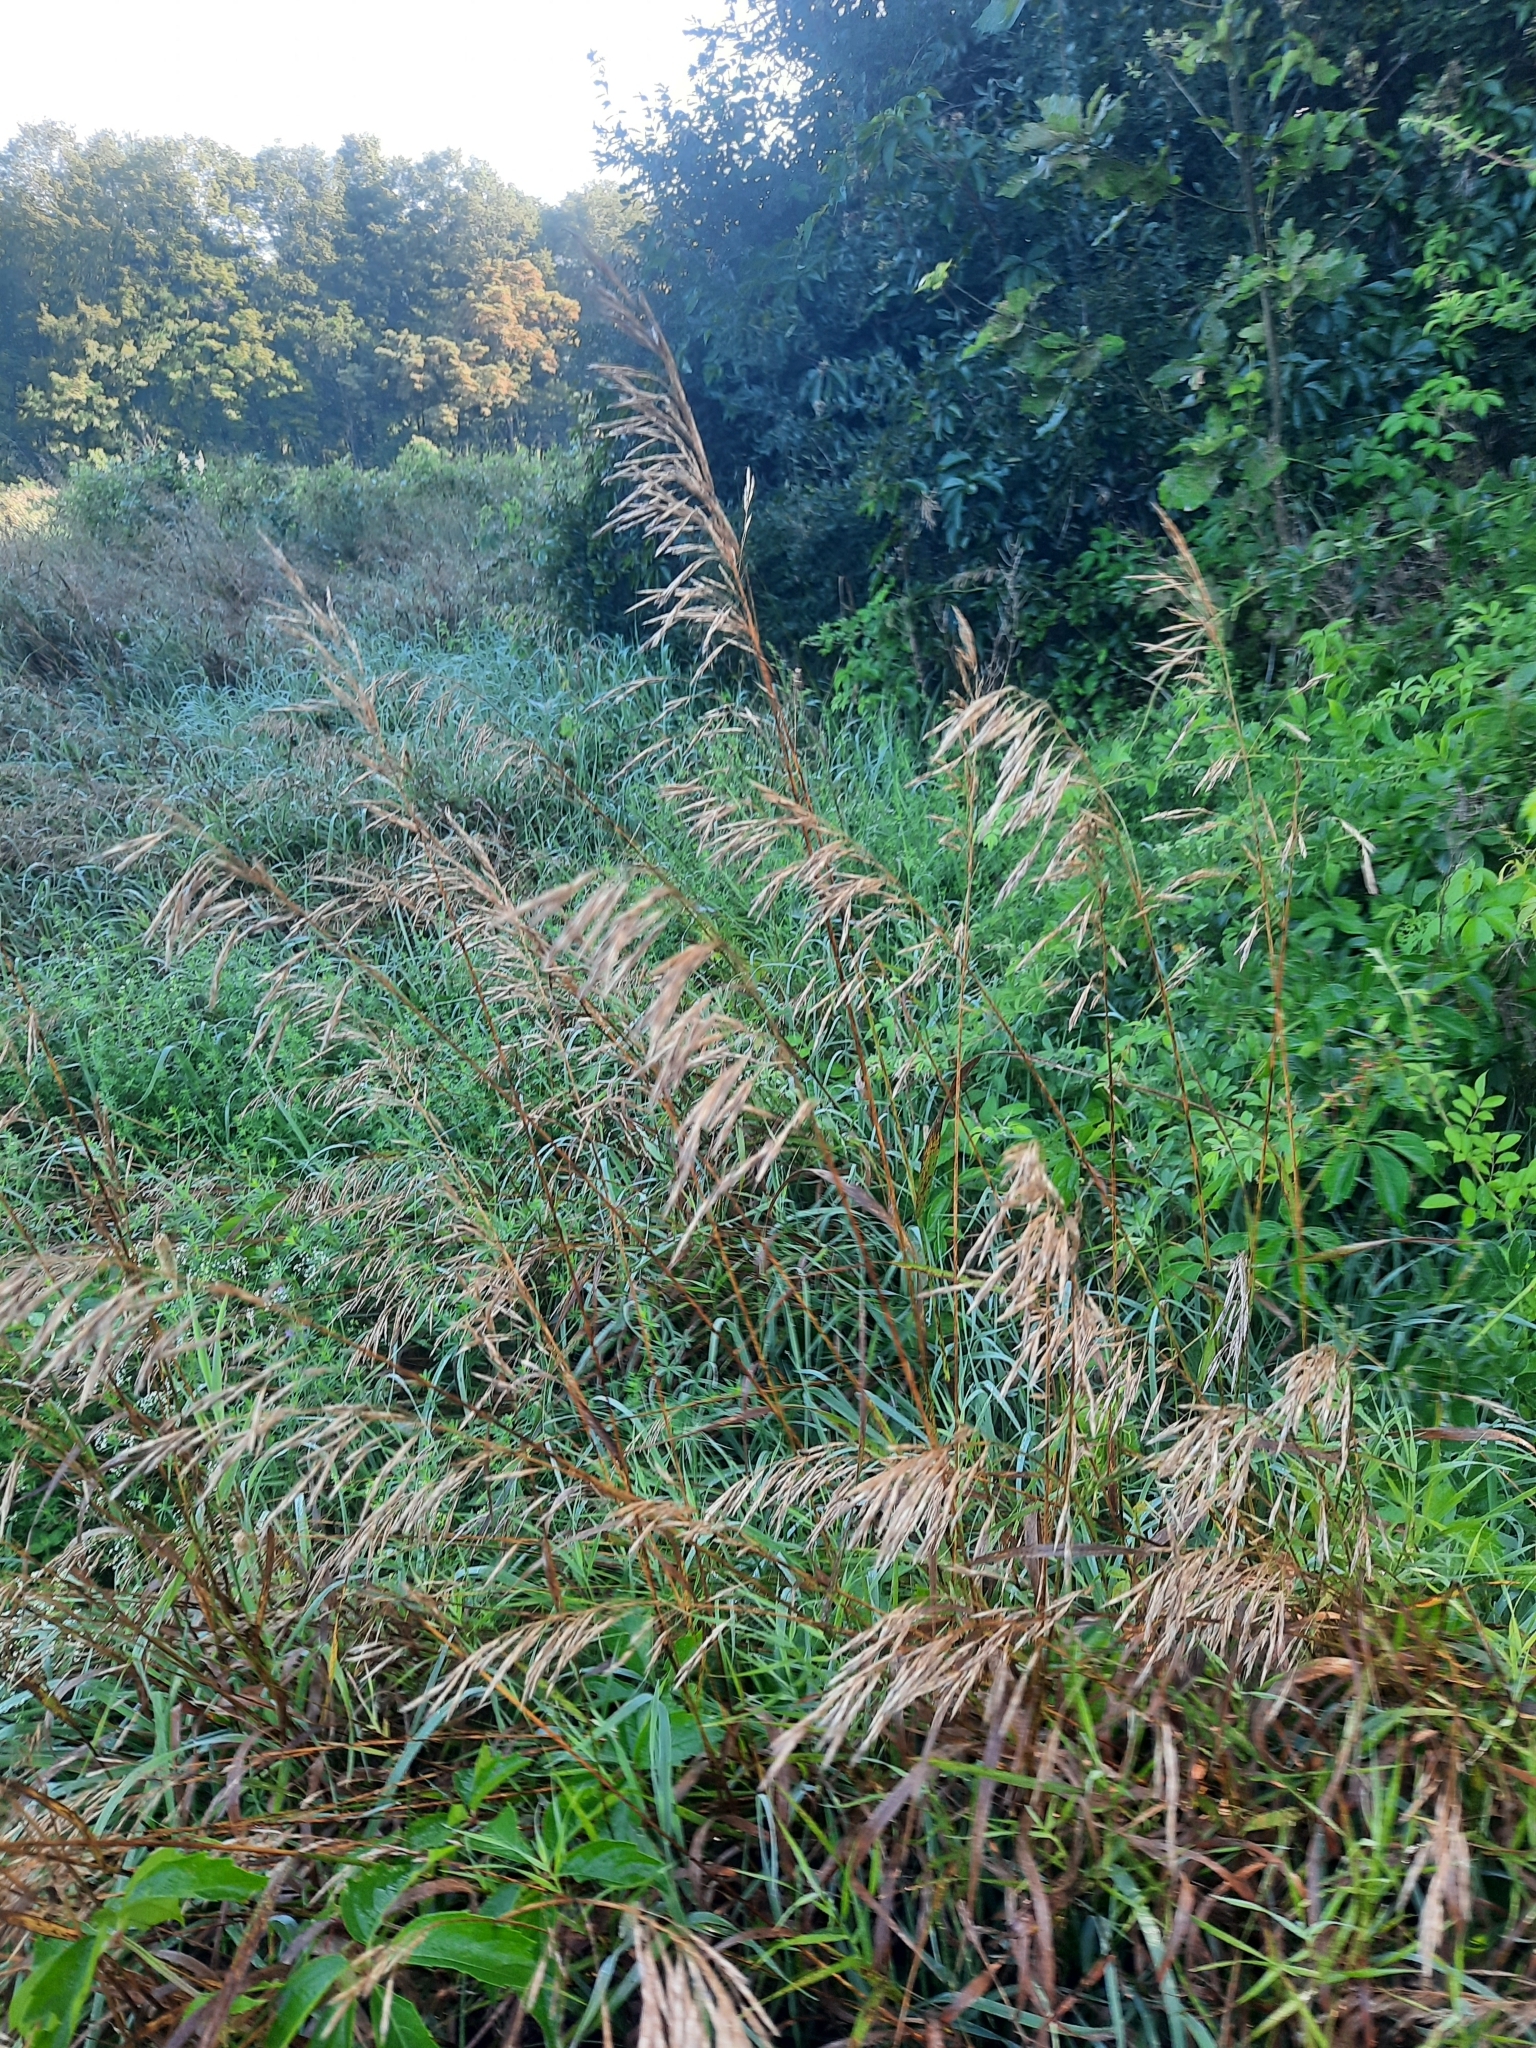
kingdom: Plantae
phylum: Tracheophyta
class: Liliopsida
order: Poales
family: Poaceae
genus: Bromus
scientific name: Bromus inermis
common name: Smooth brome
